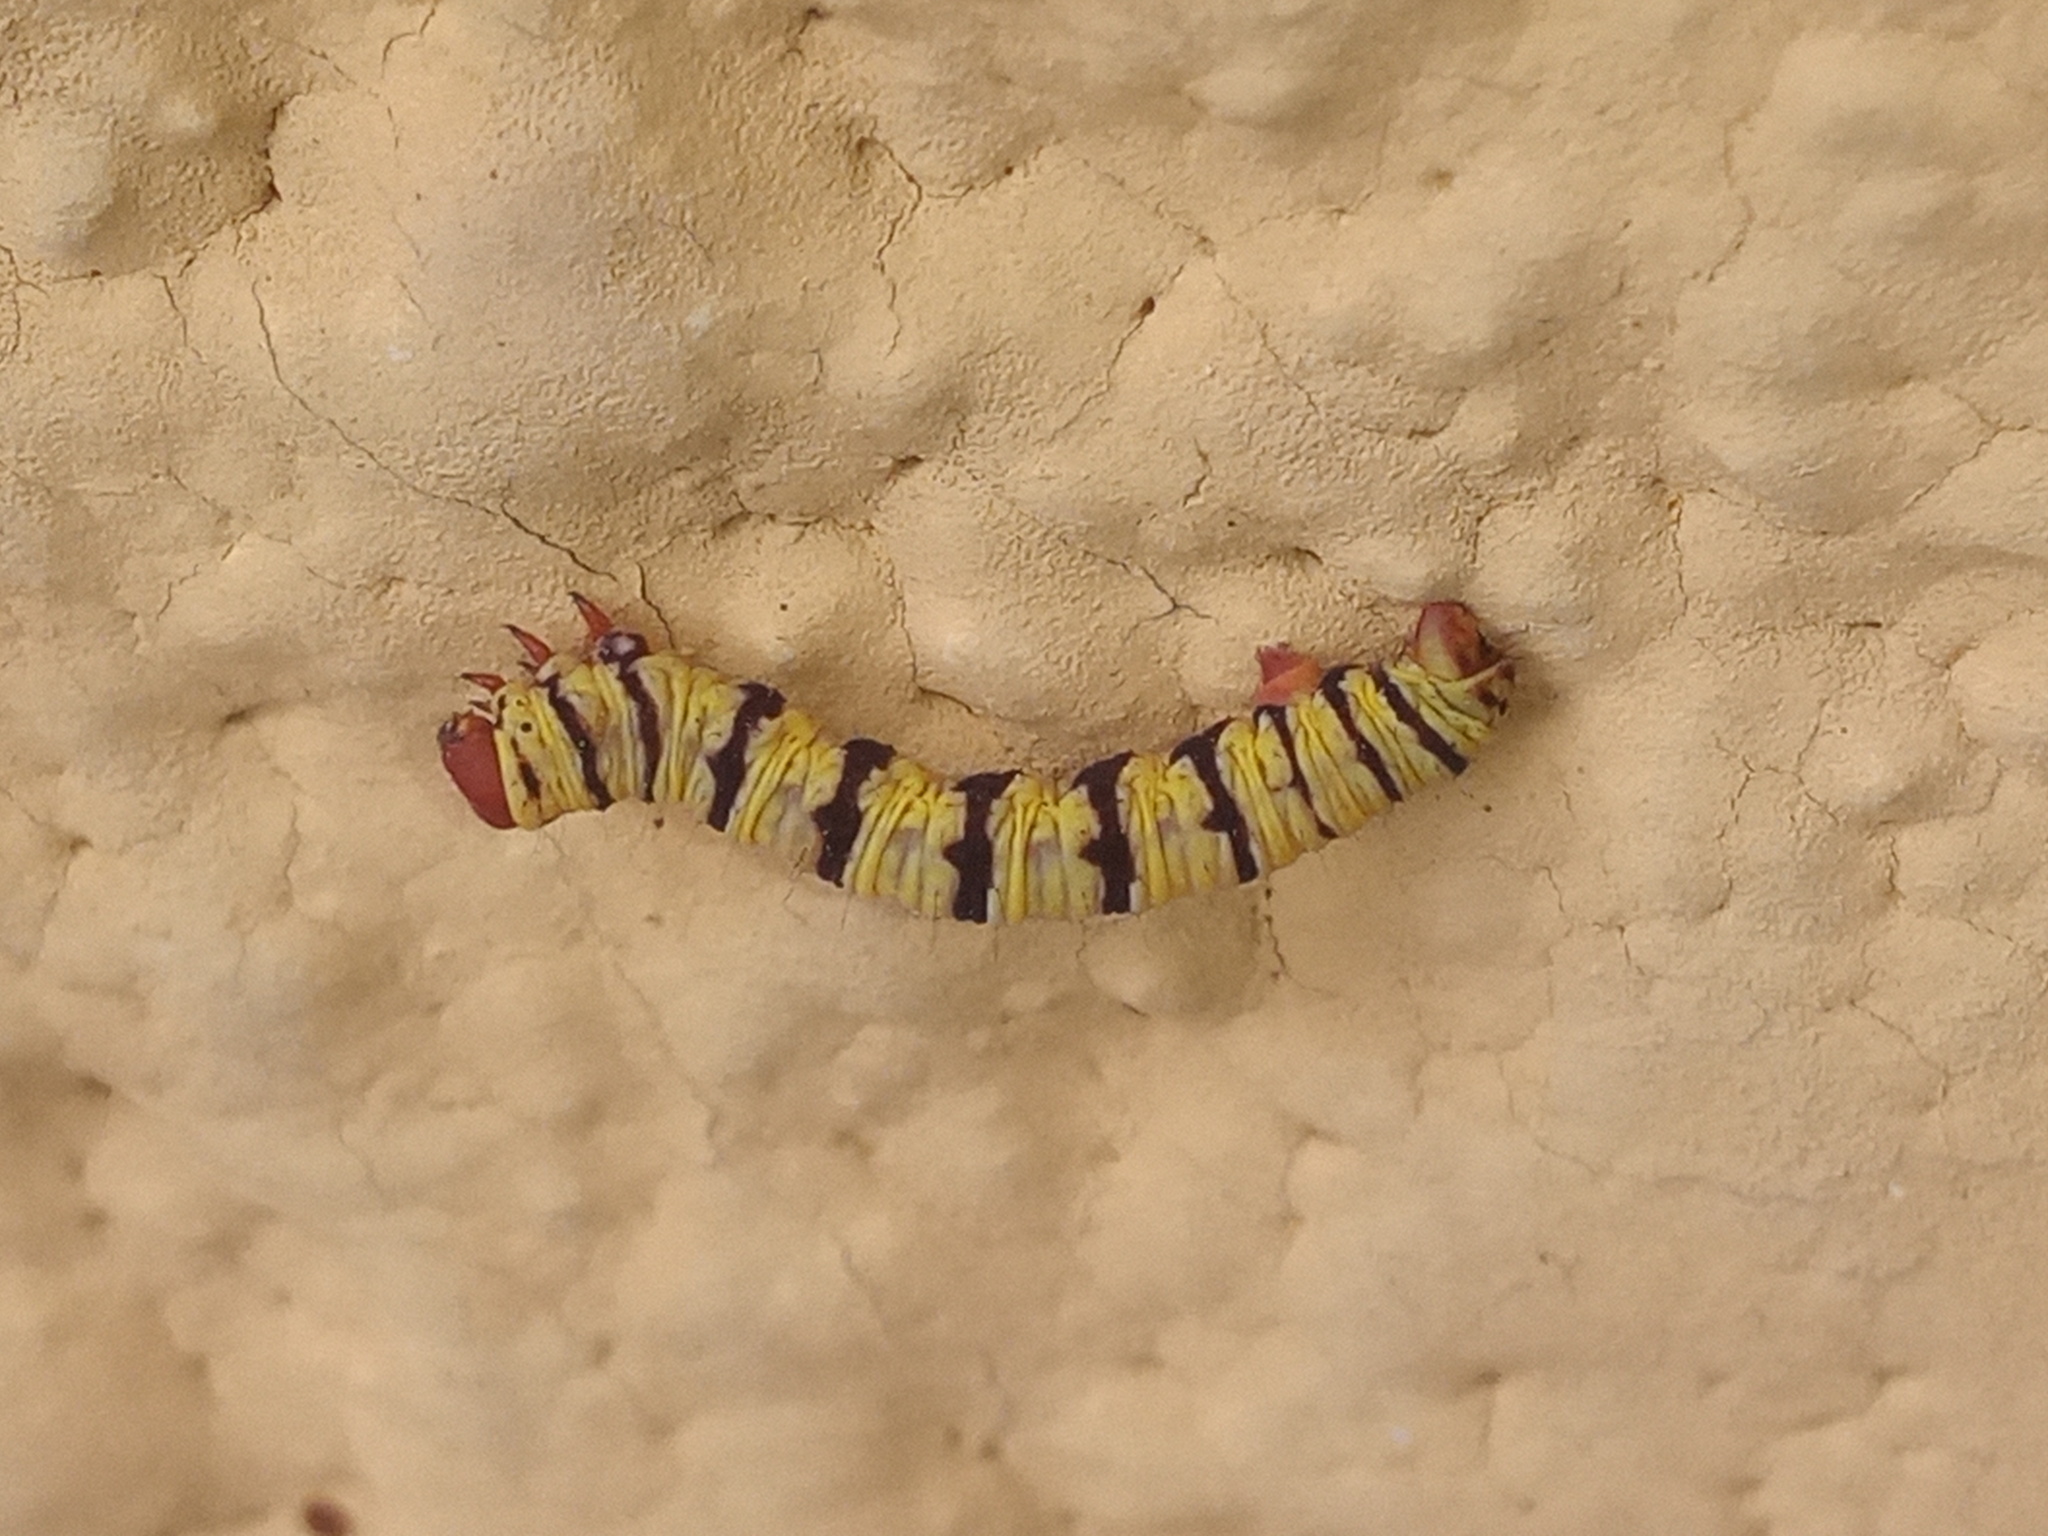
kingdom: Animalia
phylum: Arthropoda
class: Insecta
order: Lepidoptera
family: Geometridae
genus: Melanchroia
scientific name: Melanchroia chephise
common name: White-tipped black
